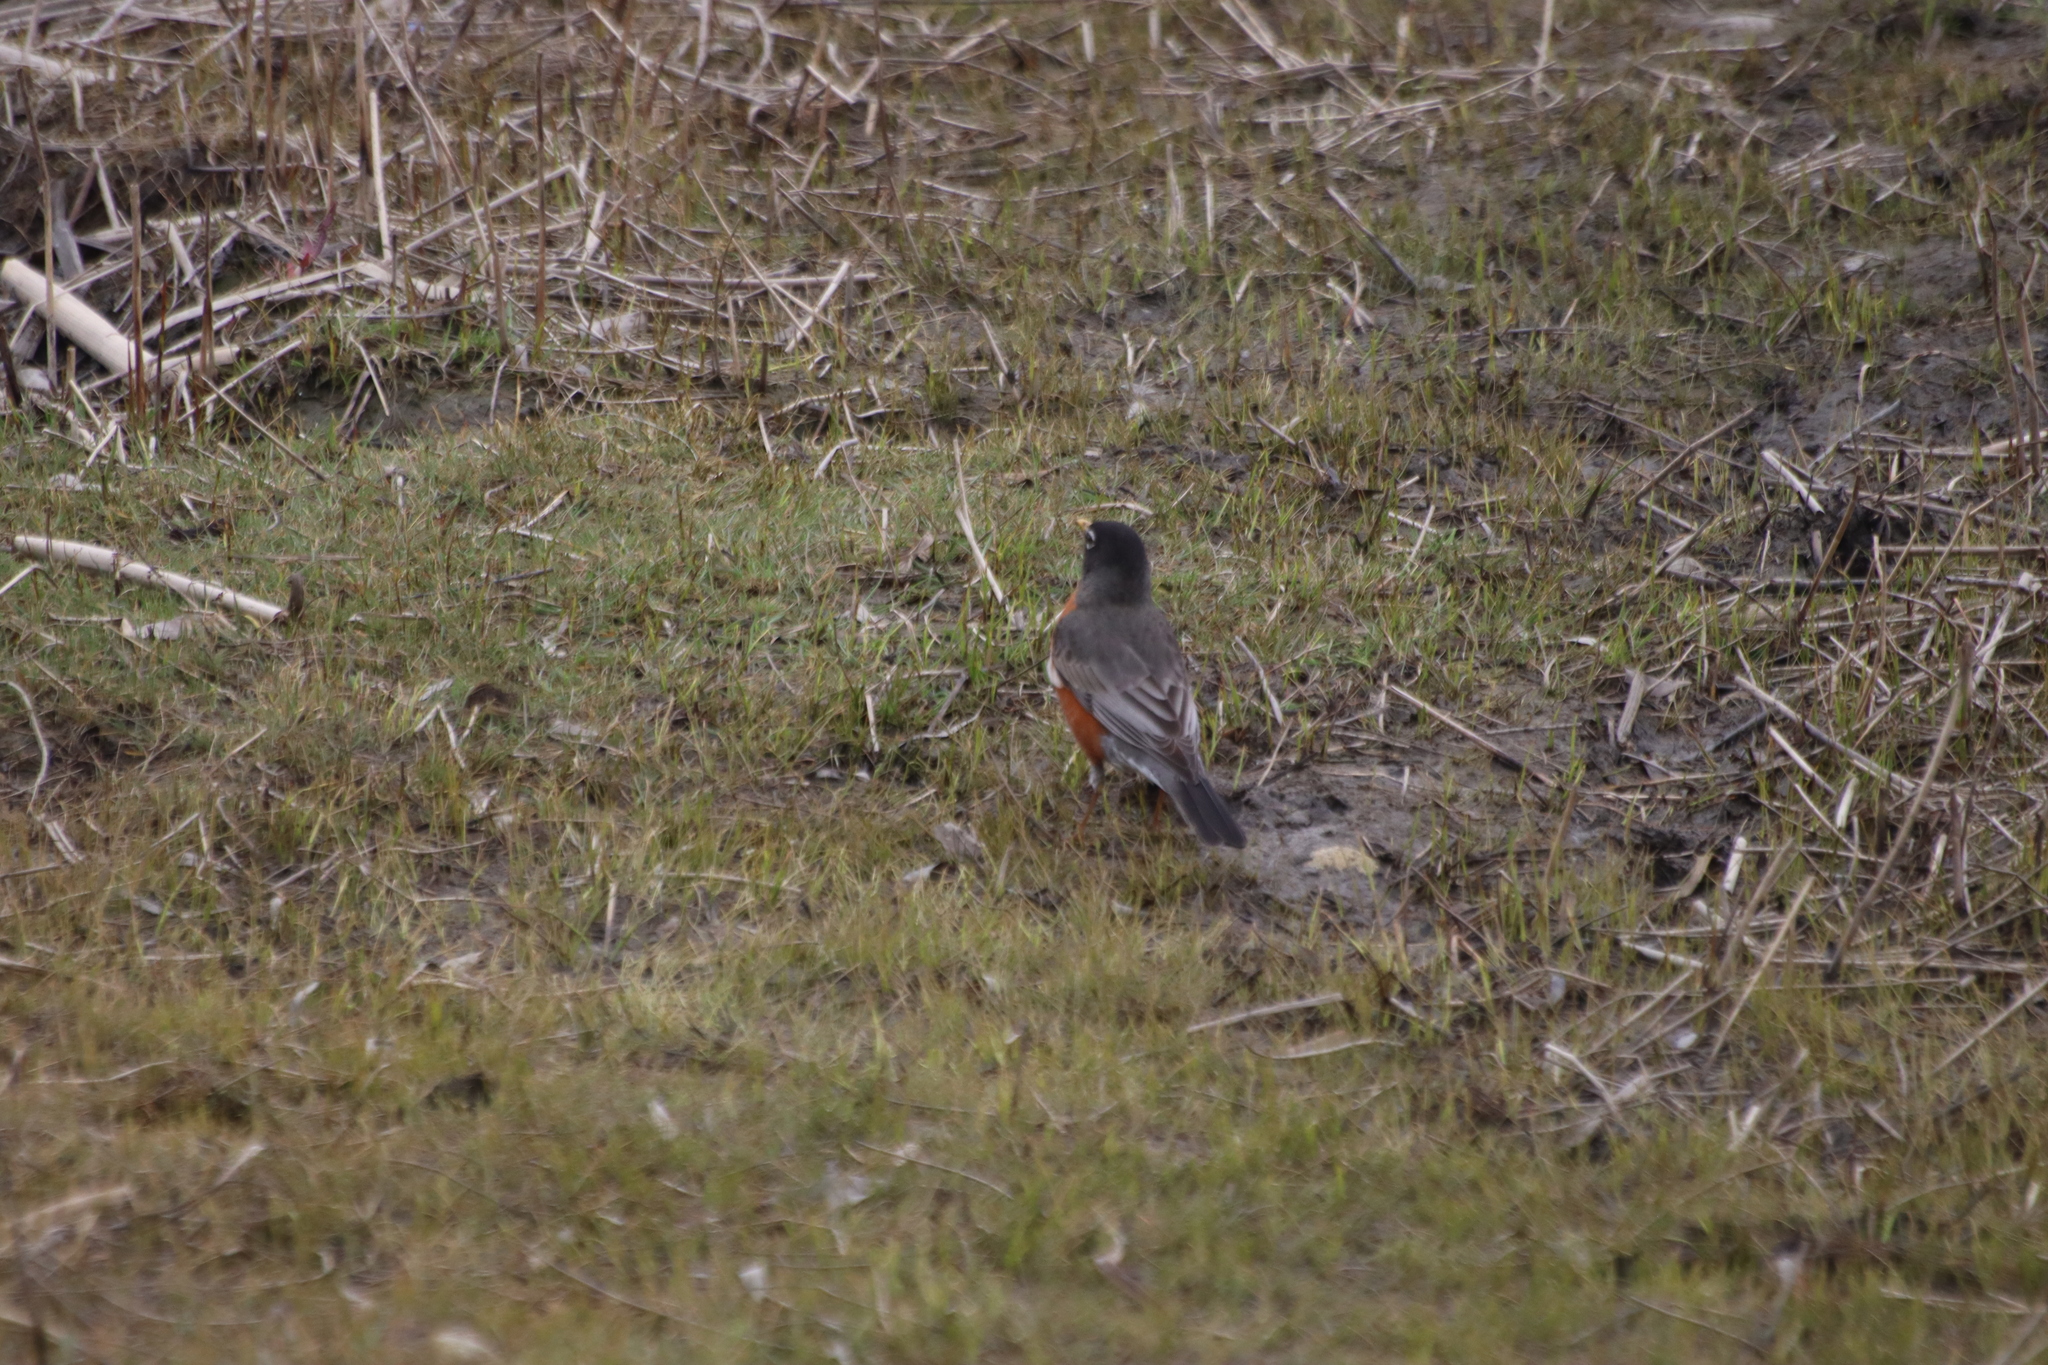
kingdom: Animalia
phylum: Chordata
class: Aves
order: Passeriformes
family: Turdidae
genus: Turdus
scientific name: Turdus migratorius
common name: American robin
